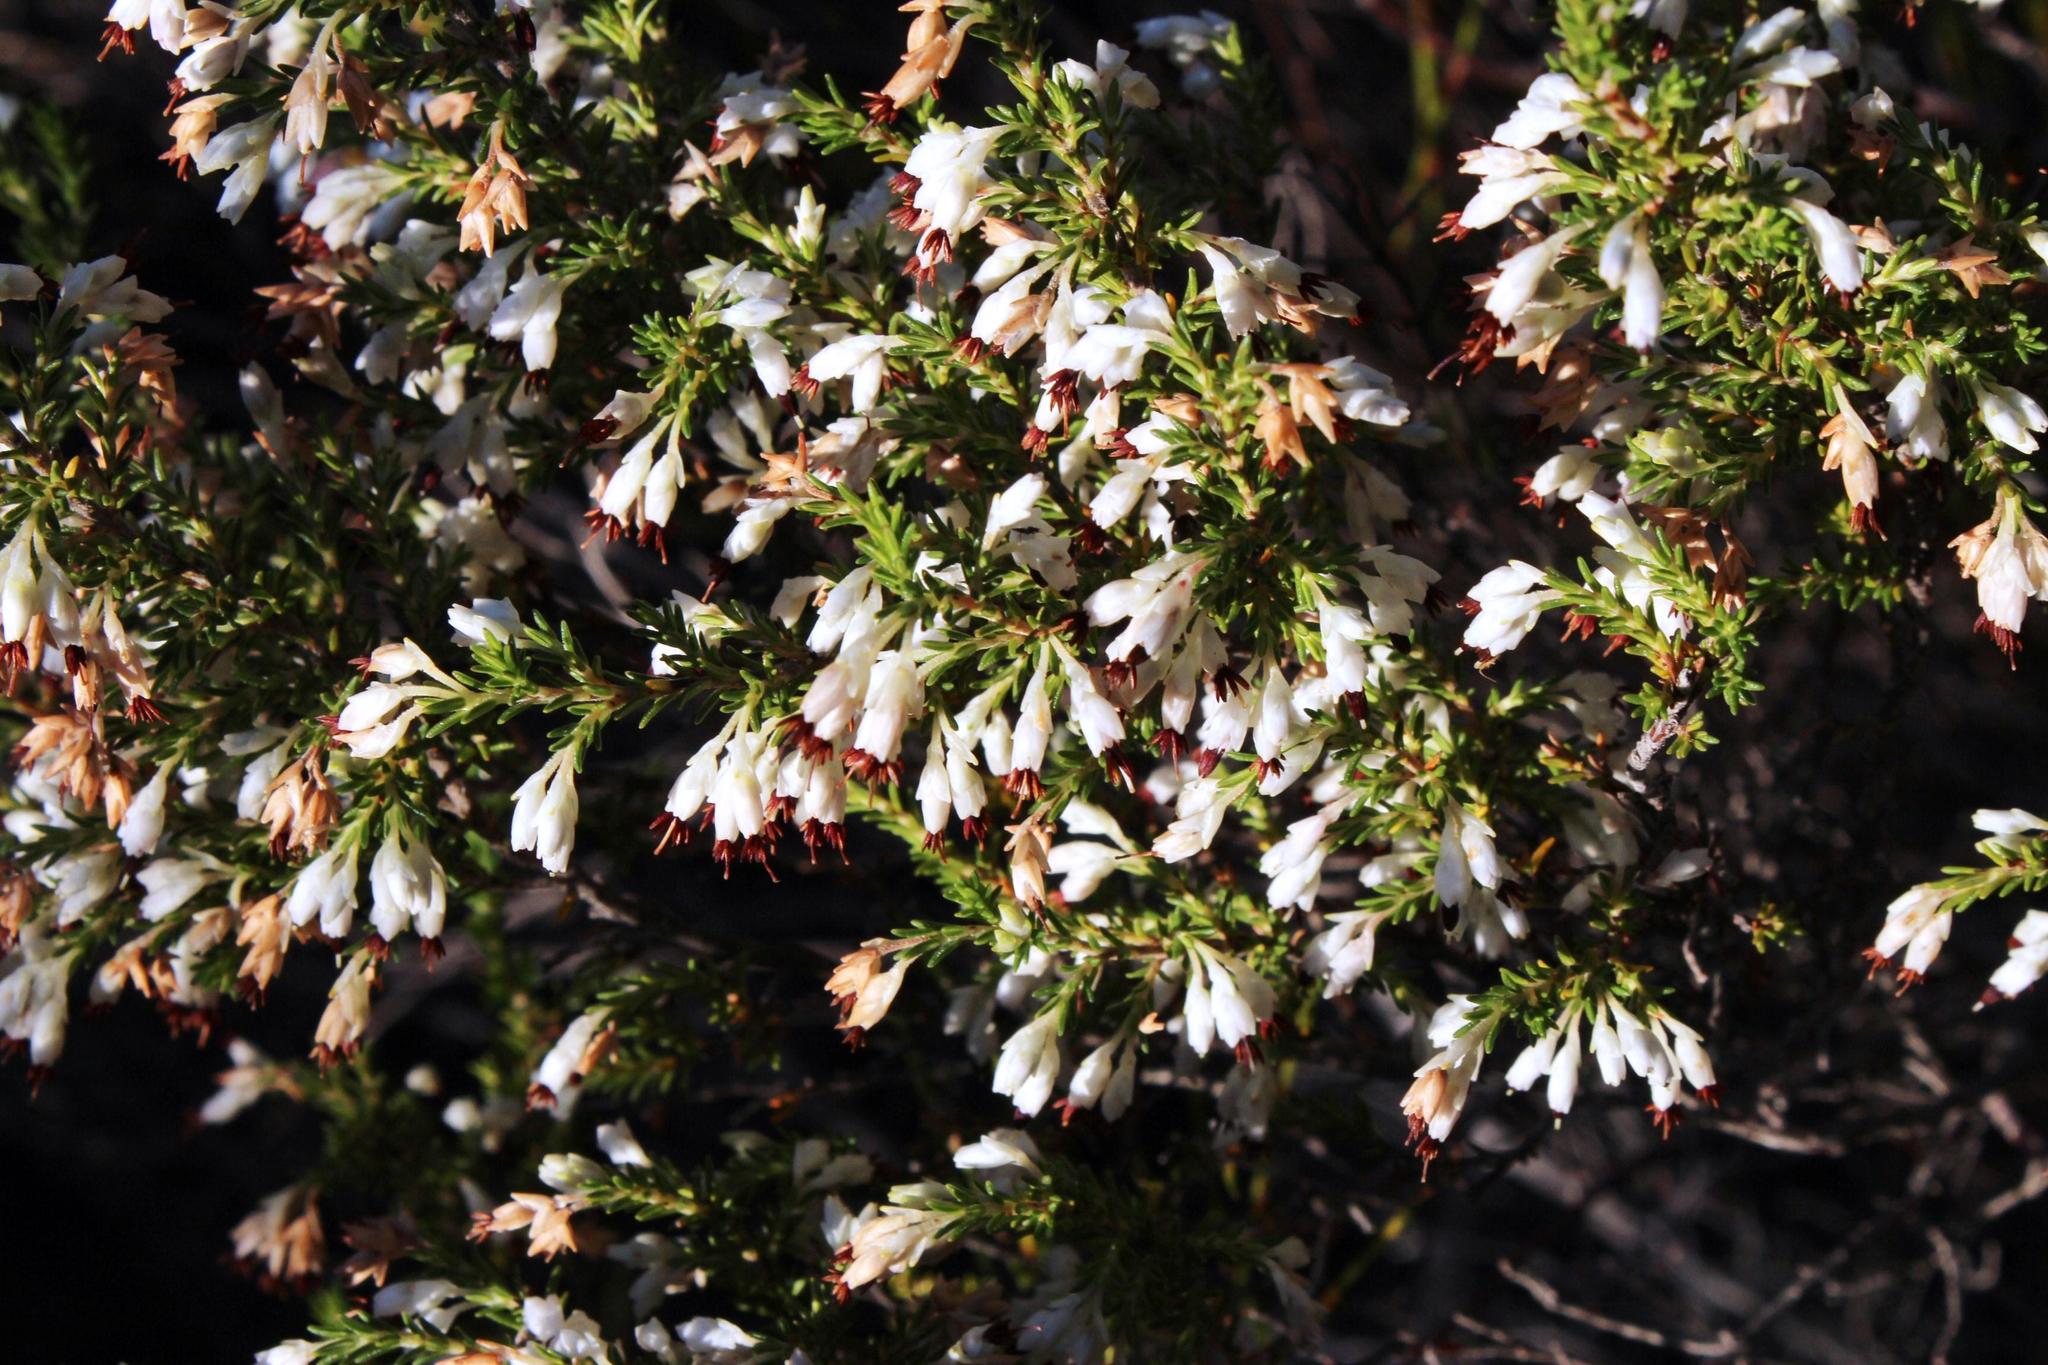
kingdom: Plantae
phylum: Tracheophyta
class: Magnoliopsida
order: Ericales
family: Ericaceae
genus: Erica
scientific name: Erica imbricata
